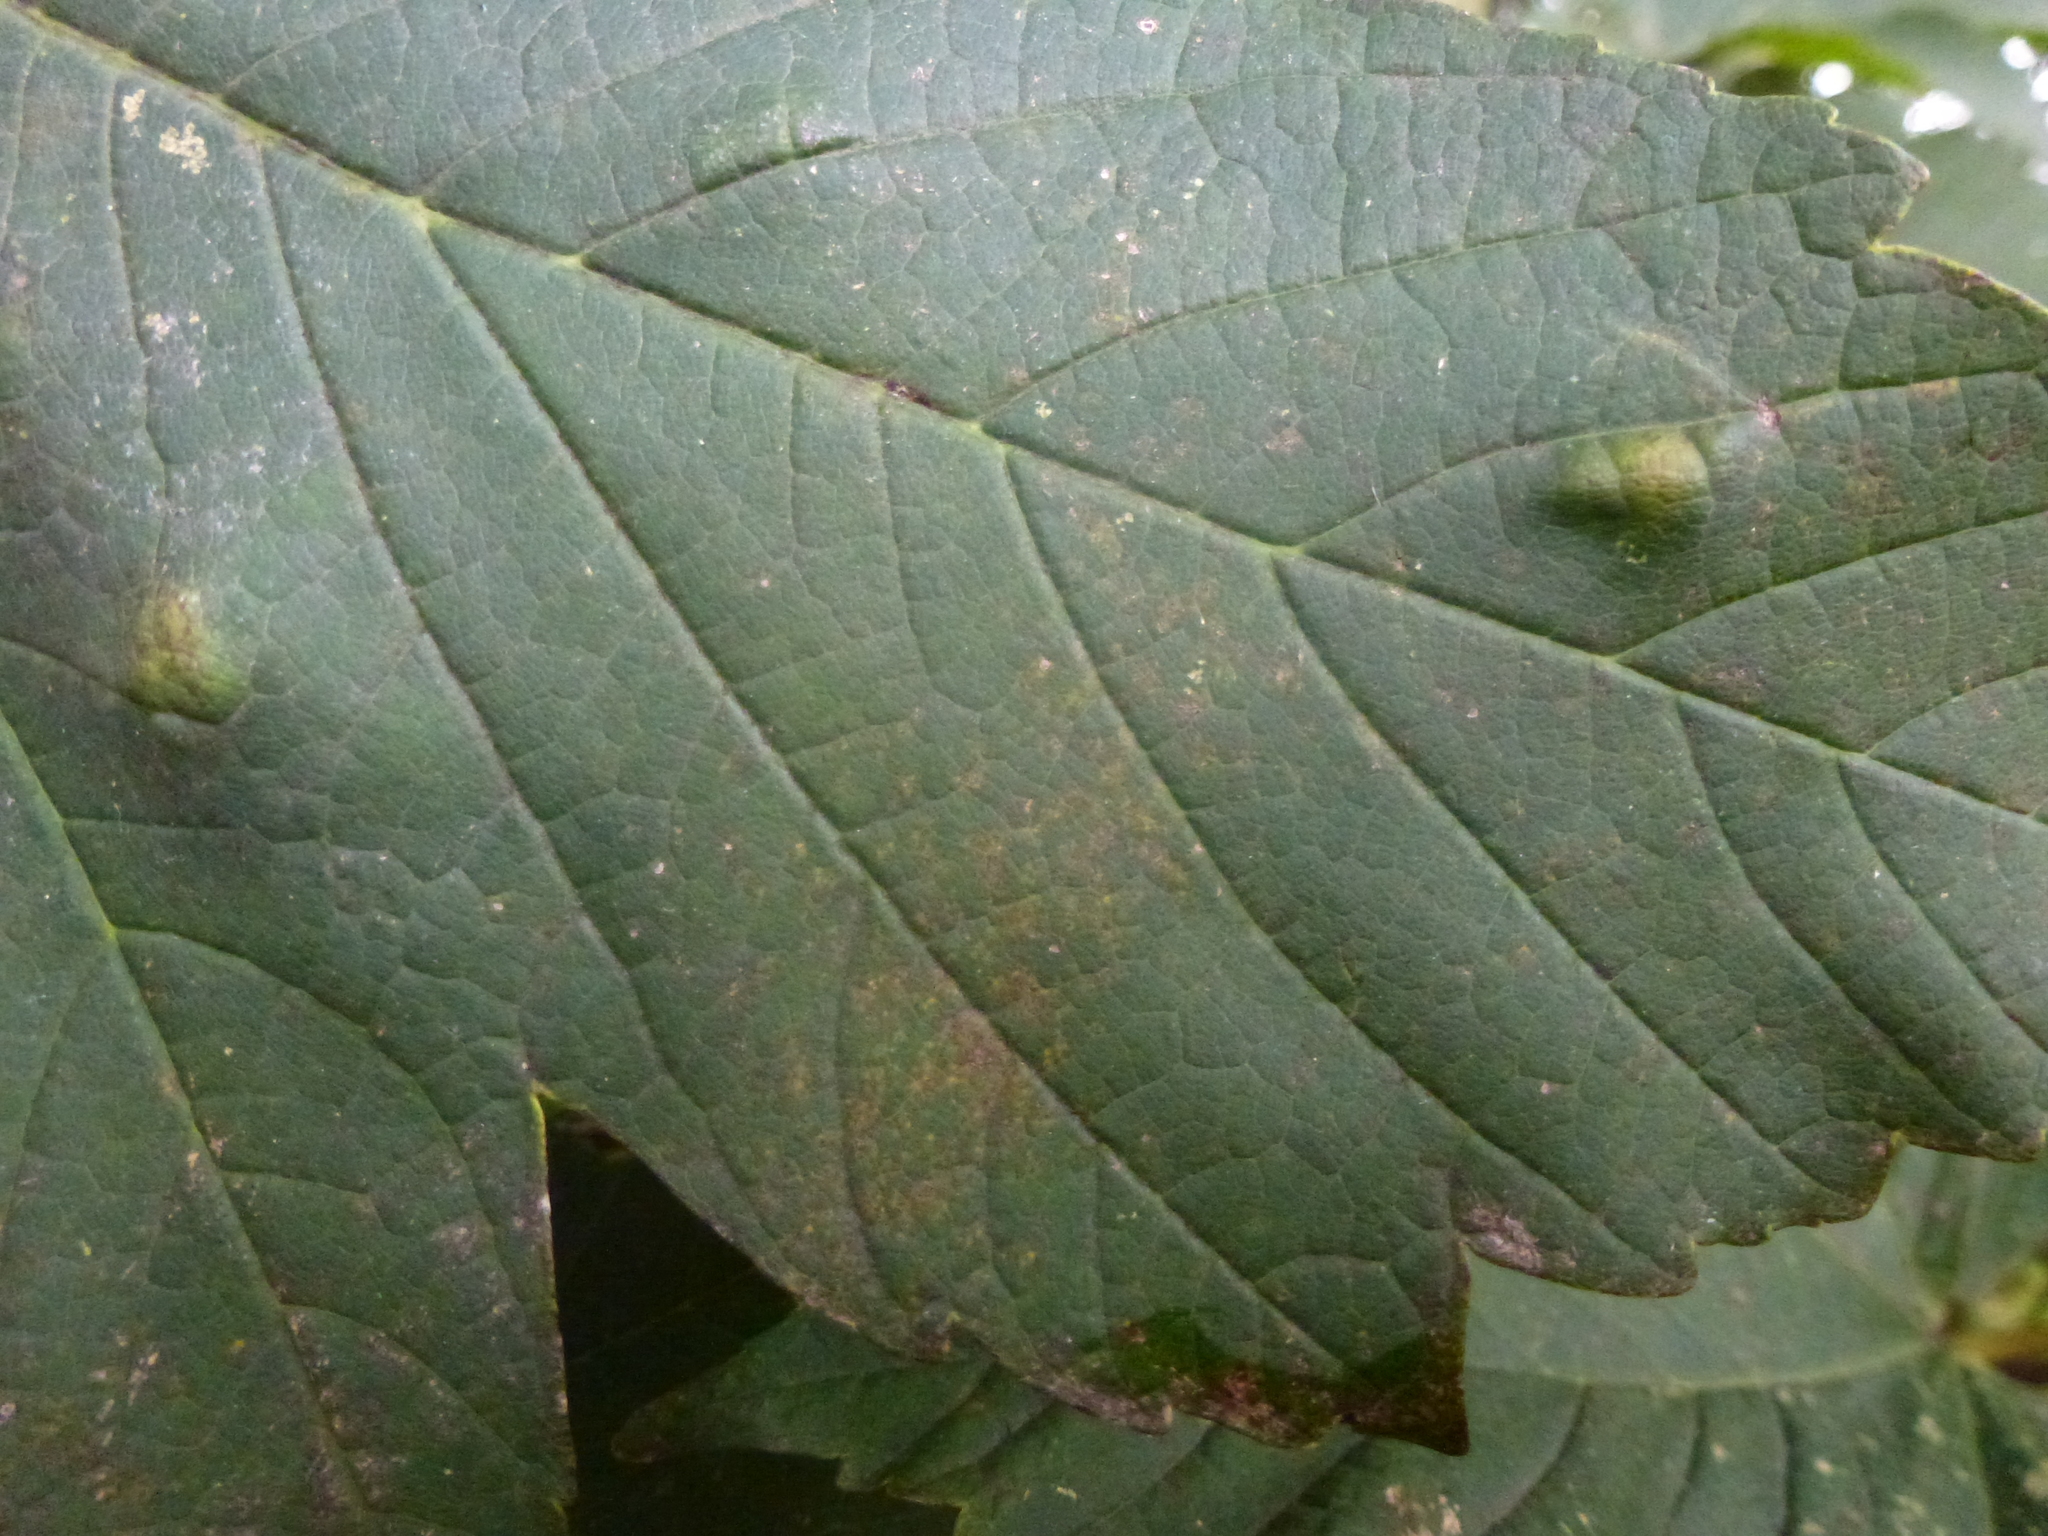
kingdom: Animalia
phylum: Arthropoda
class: Arachnida
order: Trombidiformes
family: Eriophyidae
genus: Aceria
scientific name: Aceria pseudoplatani
